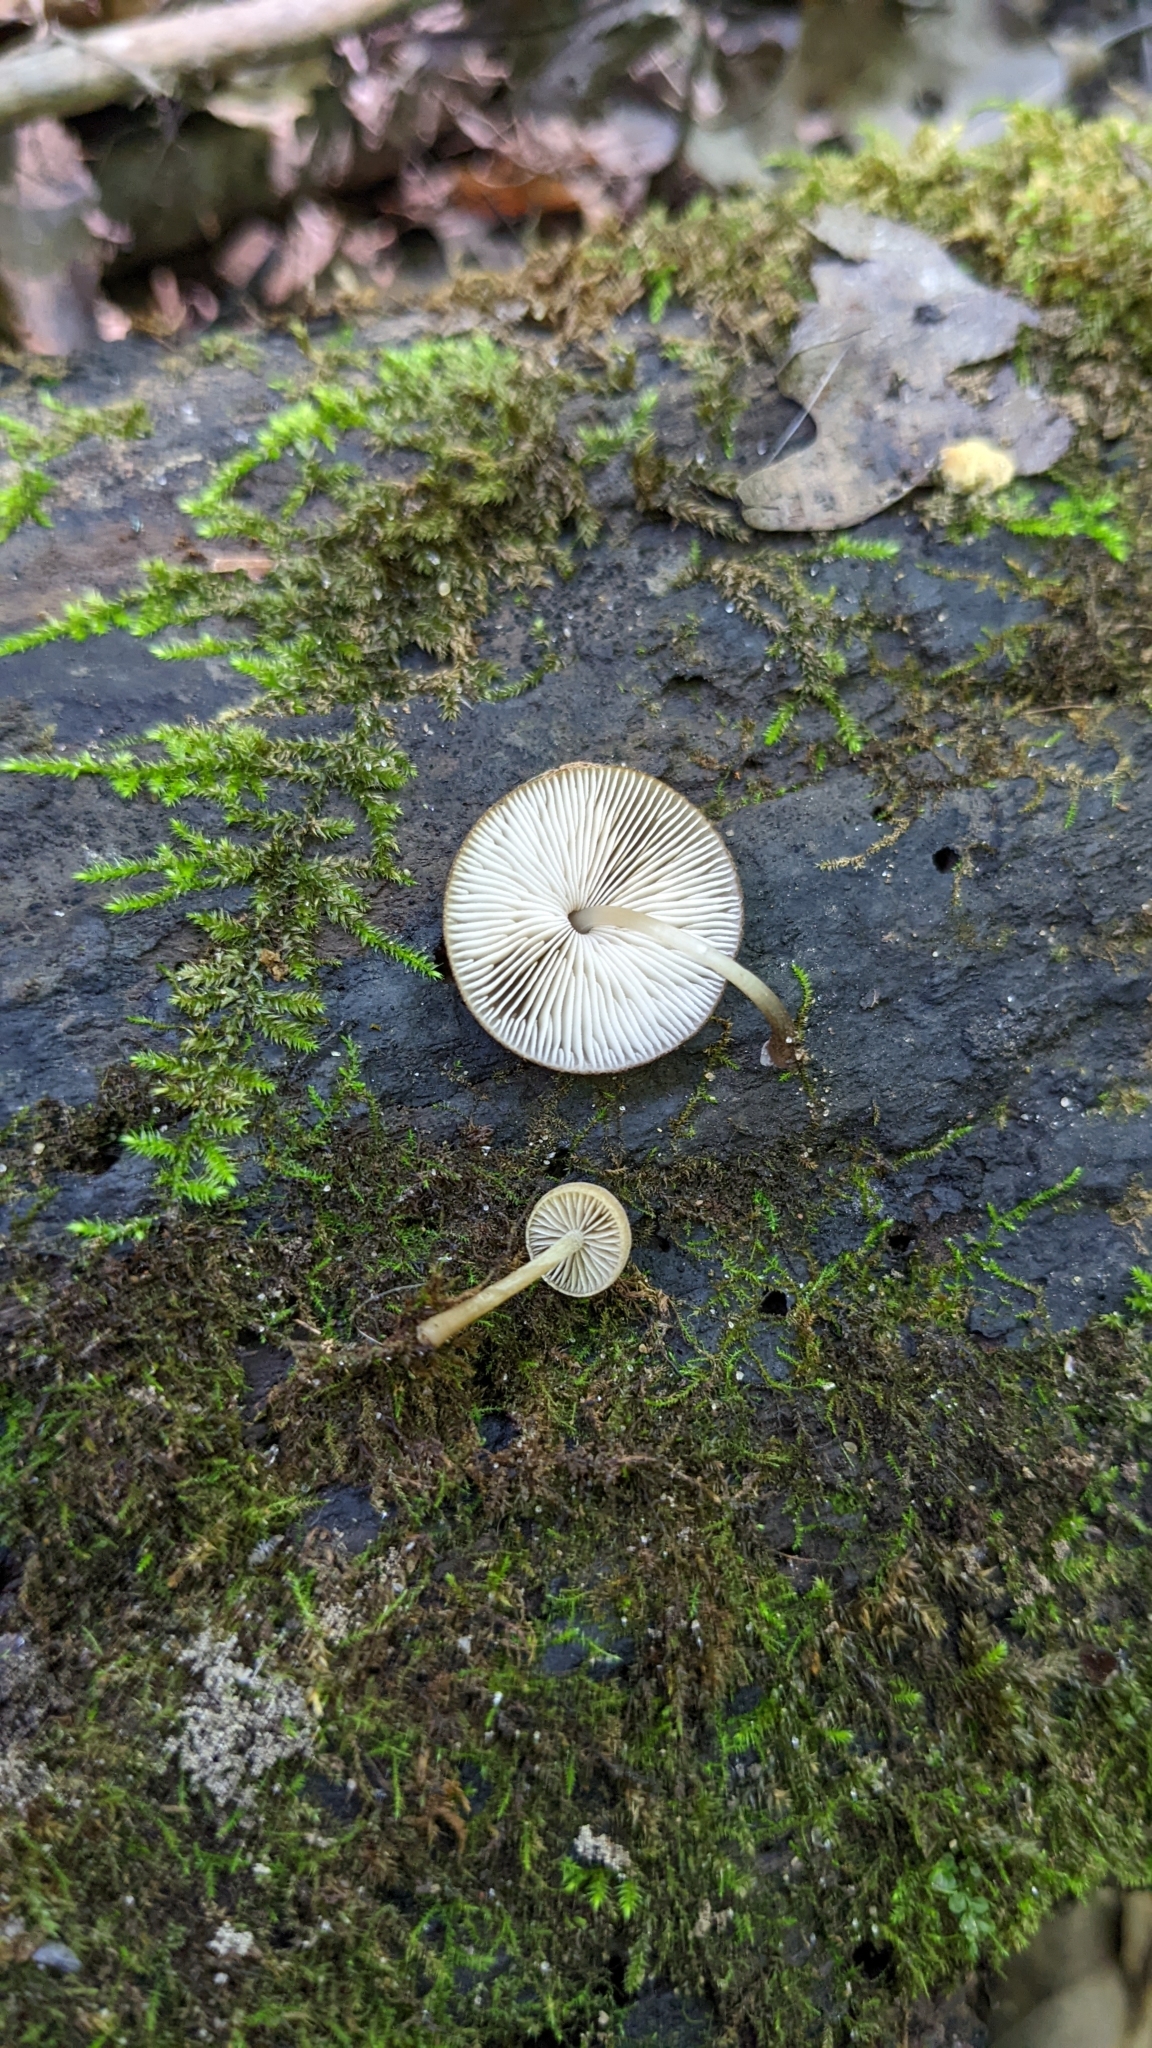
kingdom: Fungi
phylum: Basidiomycota
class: Agaricomycetes
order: Agaricales
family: Pluteaceae
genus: Pluteus
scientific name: Pluteus podospileus
